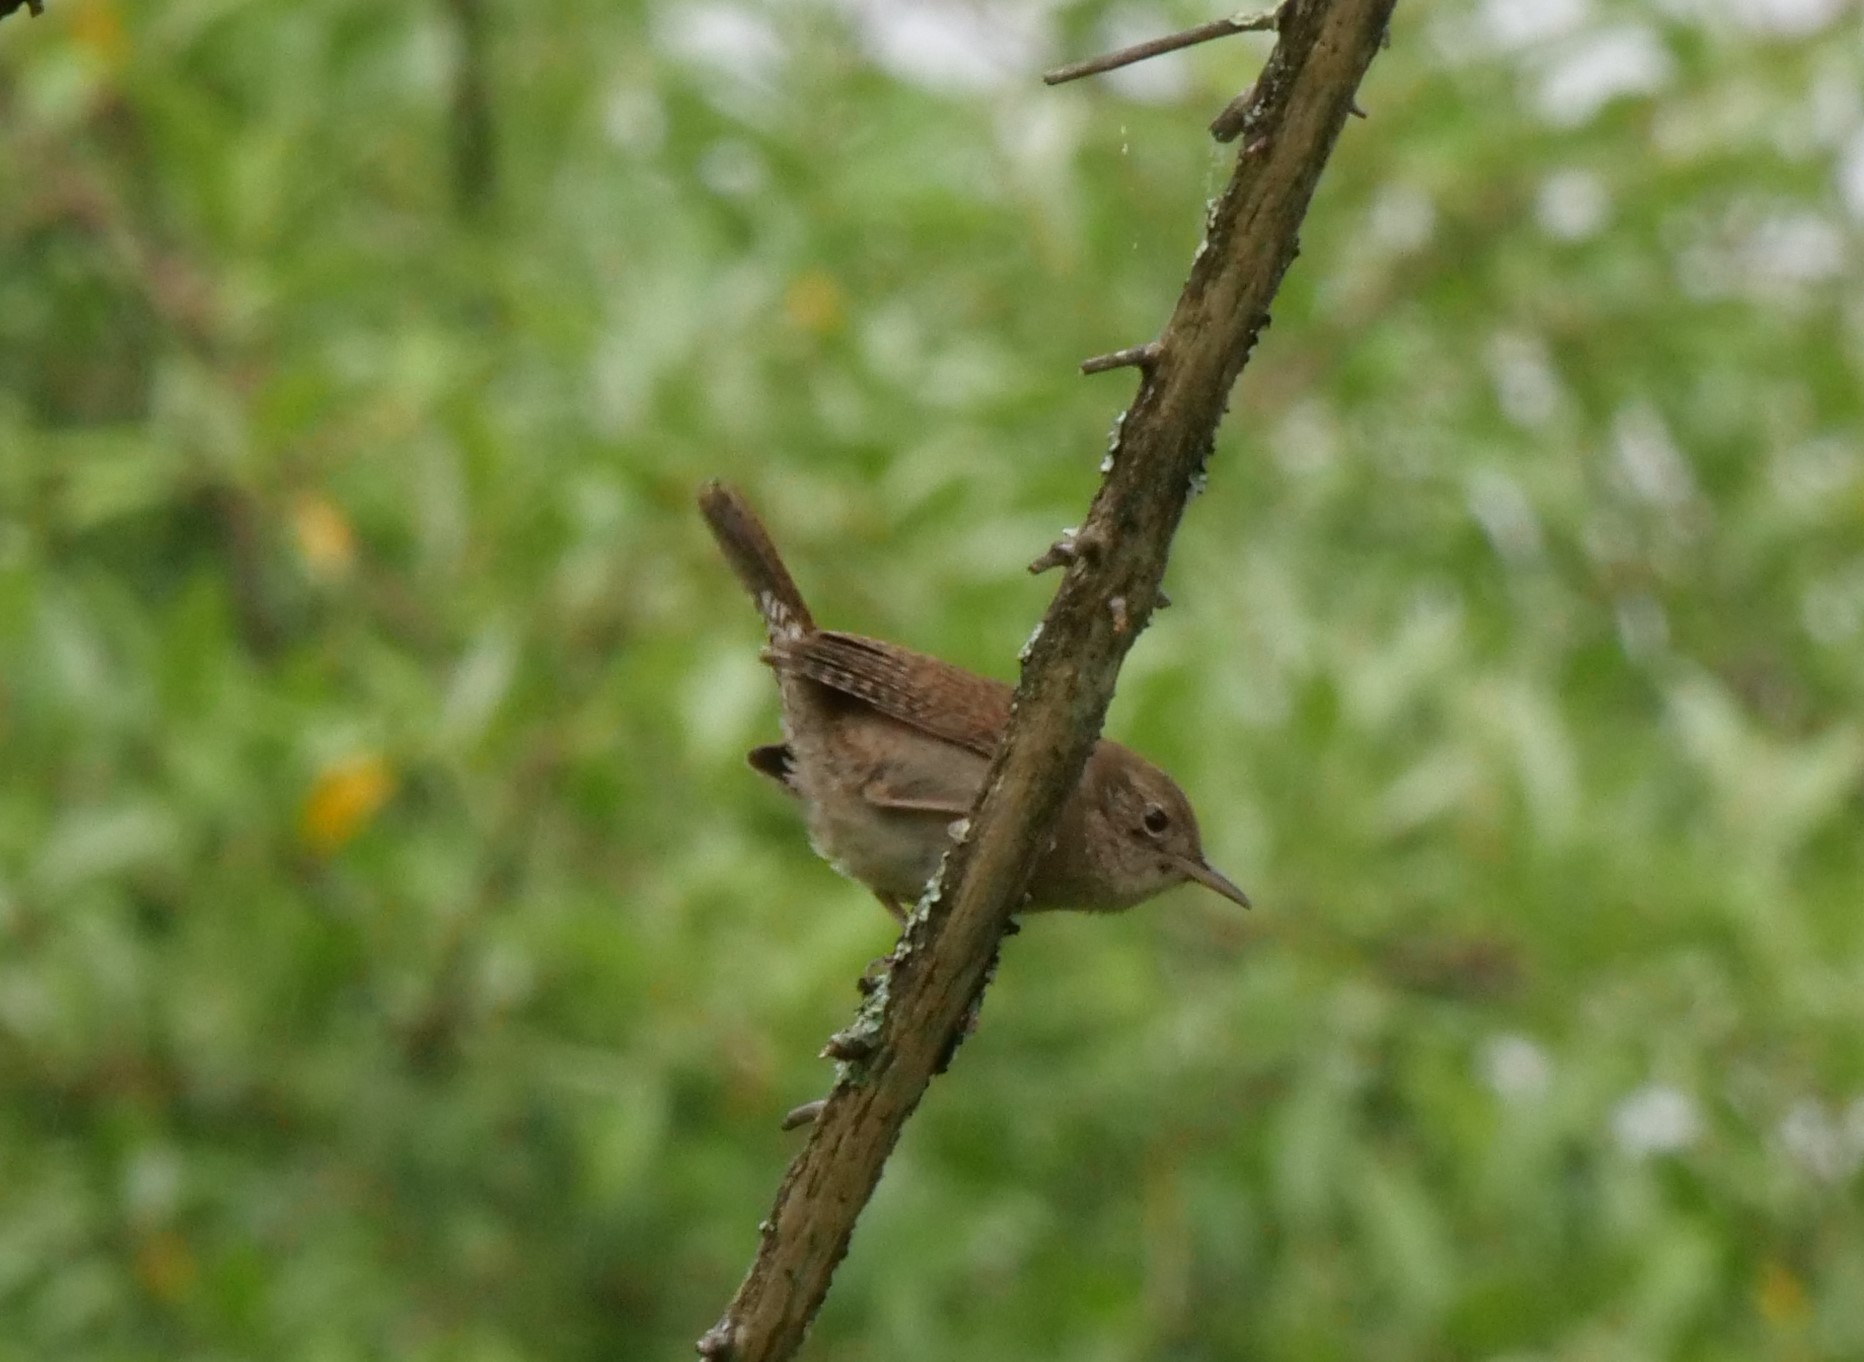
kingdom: Animalia
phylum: Chordata
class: Aves
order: Passeriformes
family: Troglodytidae
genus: Troglodytes
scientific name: Troglodytes aedon
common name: House wren
